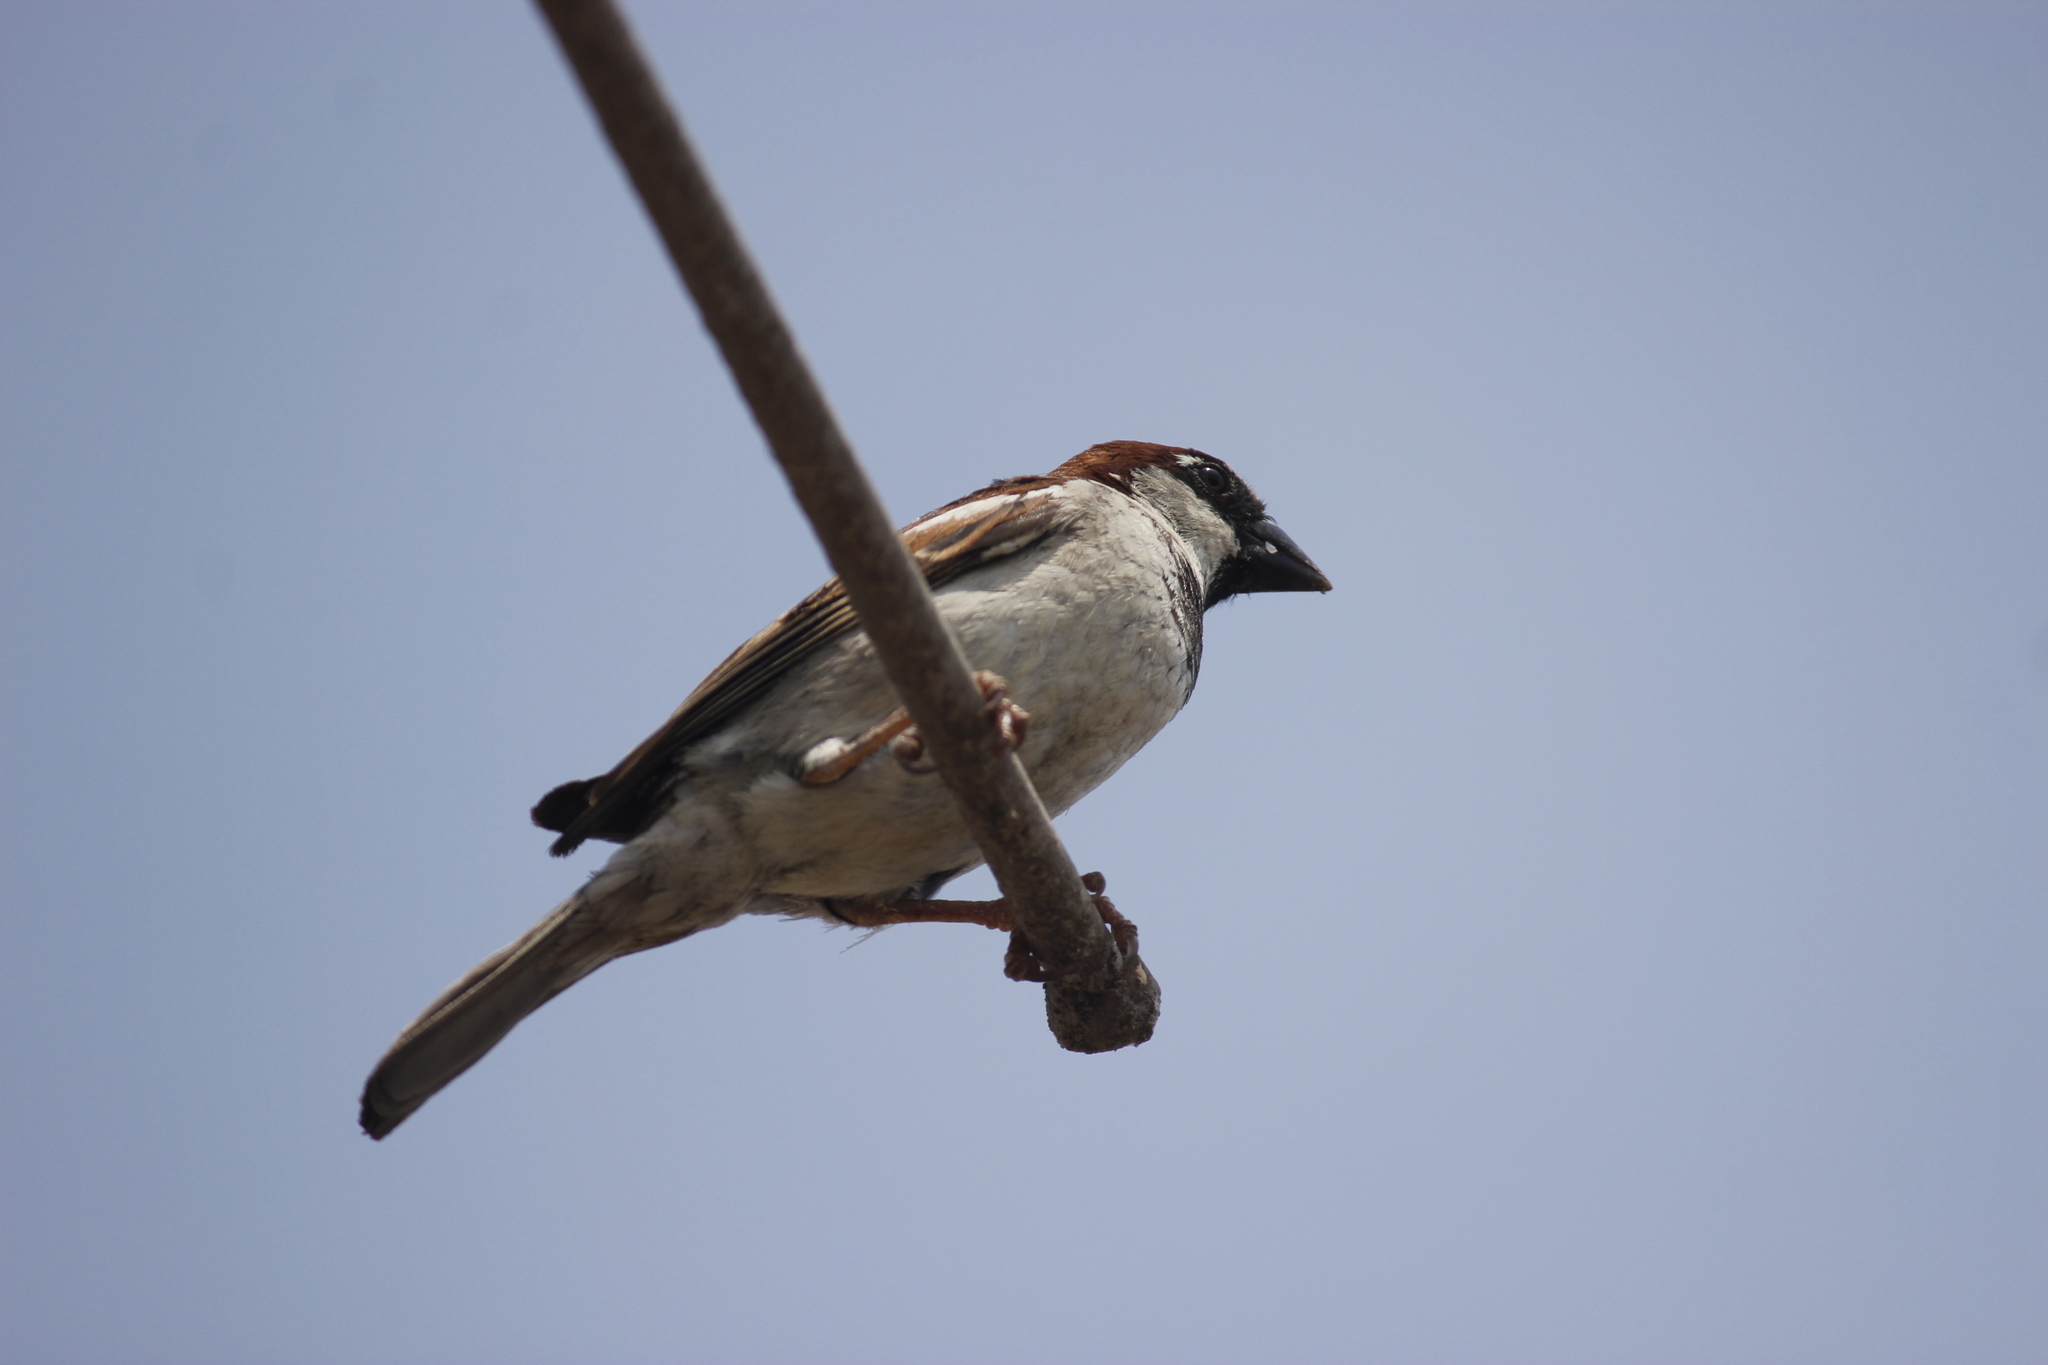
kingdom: Animalia
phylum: Chordata
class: Aves
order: Passeriformes
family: Passeridae
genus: Passer
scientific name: Passer domesticus
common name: House sparrow
